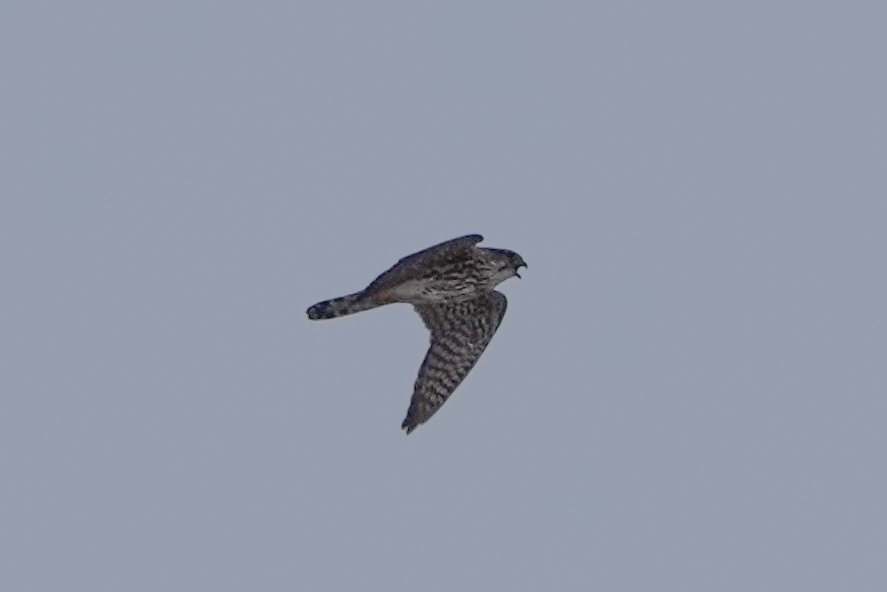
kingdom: Animalia
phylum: Chordata
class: Aves
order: Falconiformes
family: Falconidae
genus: Falco
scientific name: Falco columbarius
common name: Merlin
